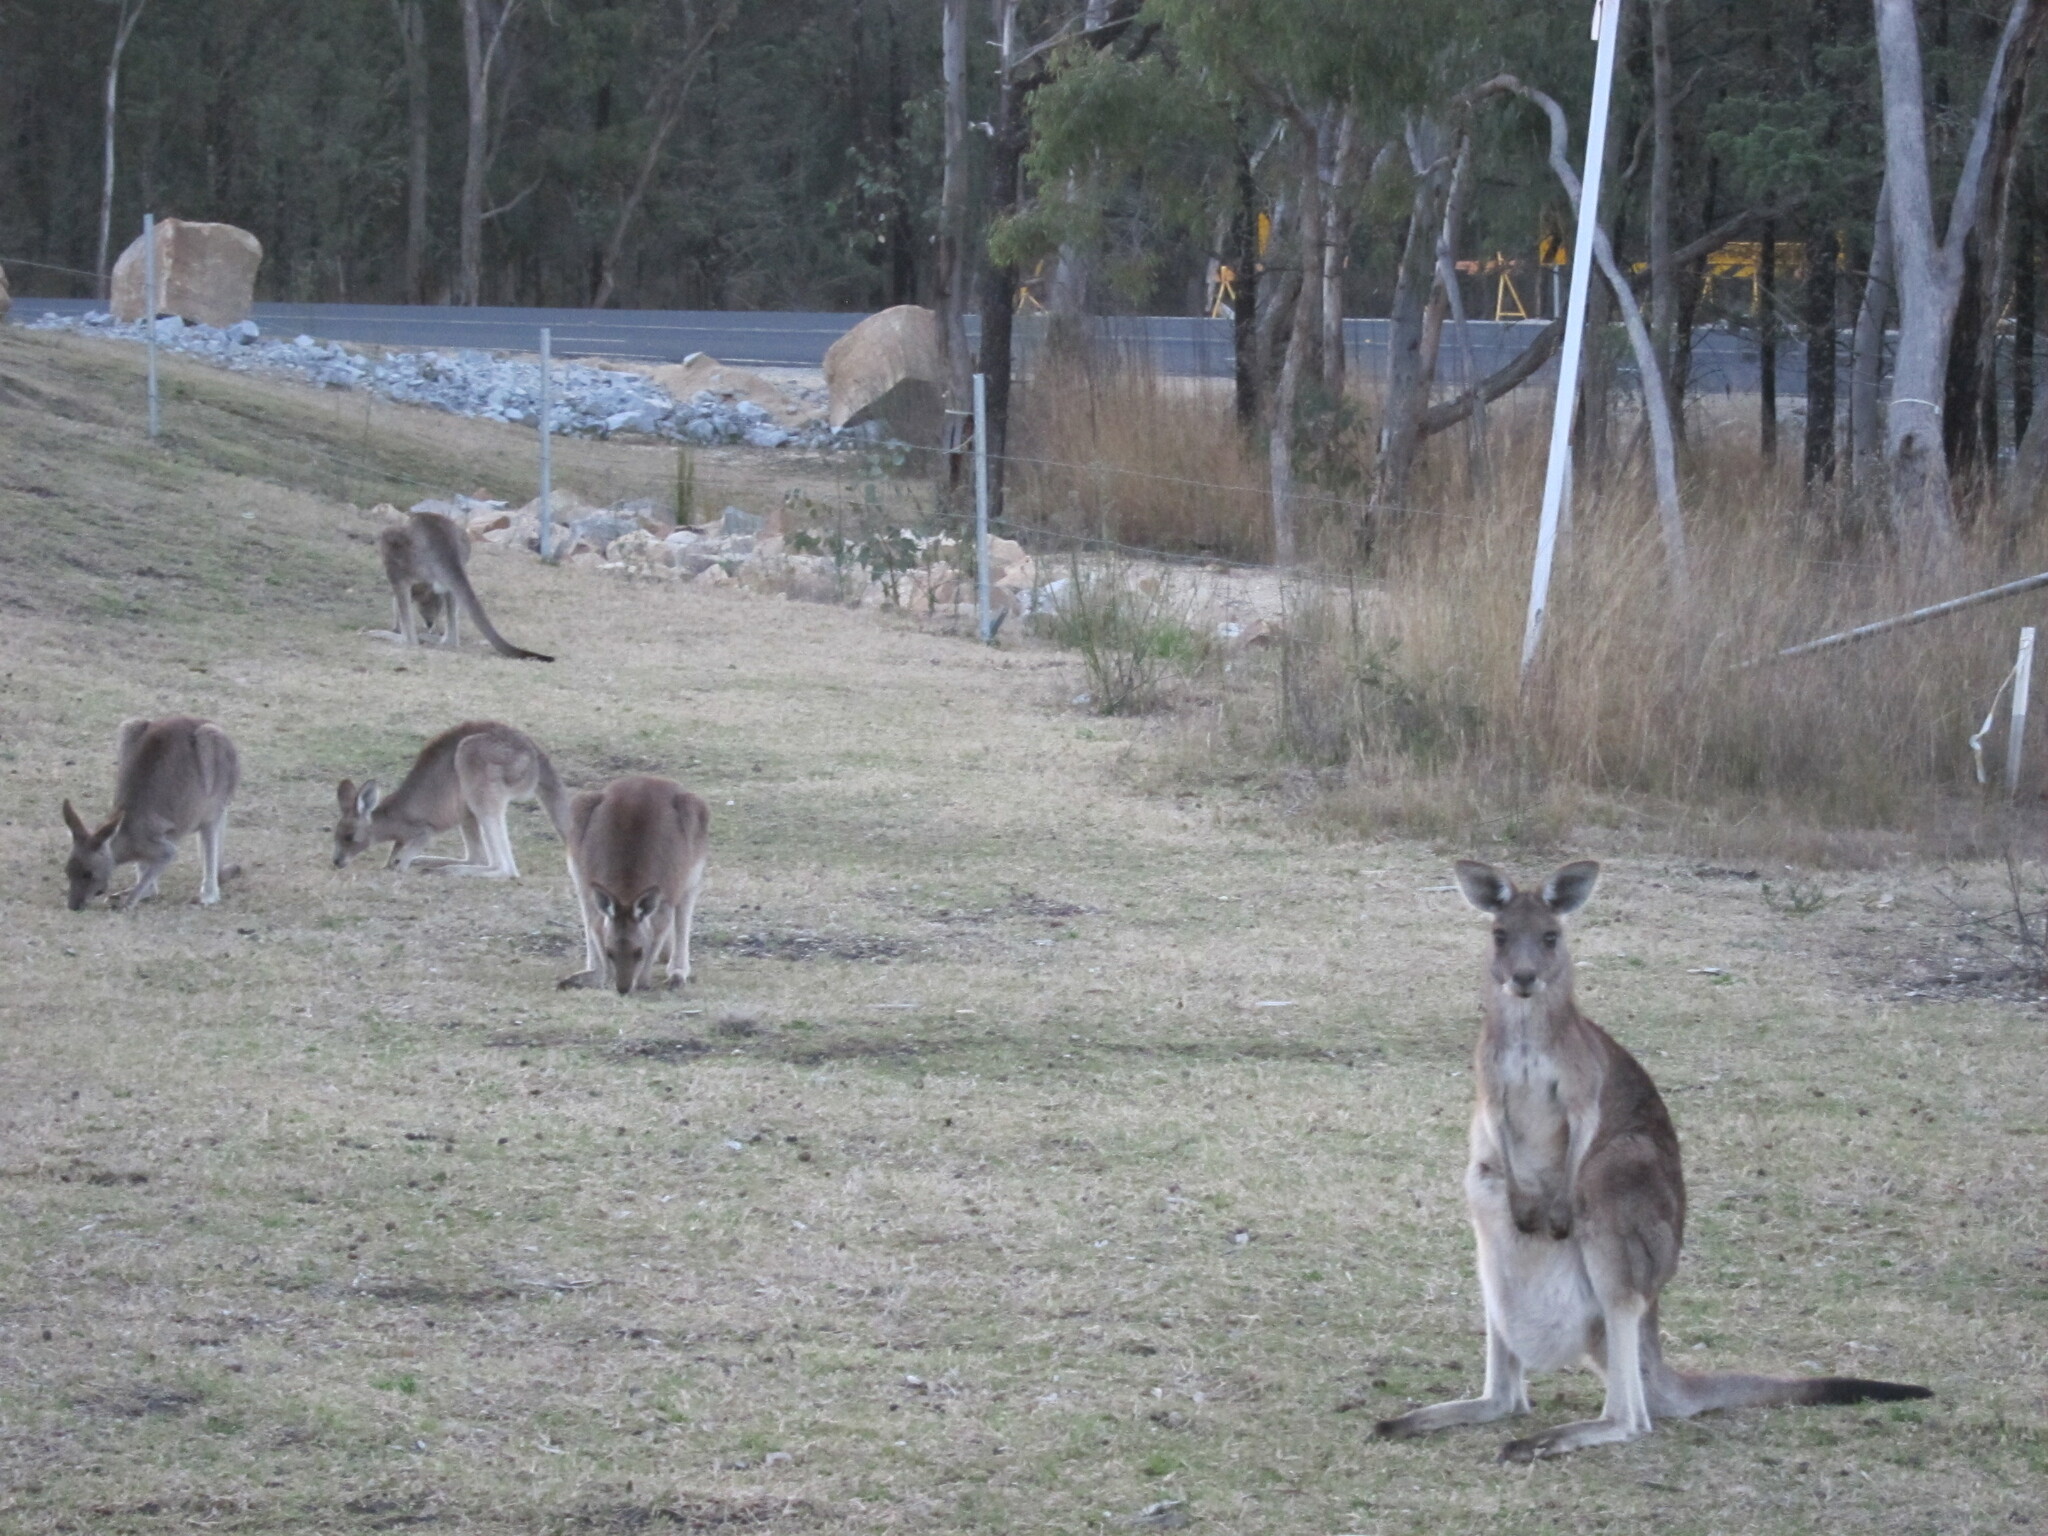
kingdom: Animalia
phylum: Chordata
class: Mammalia
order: Diprotodontia
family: Macropodidae
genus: Macropus
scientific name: Macropus giganteus
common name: Eastern grey kangaroo
